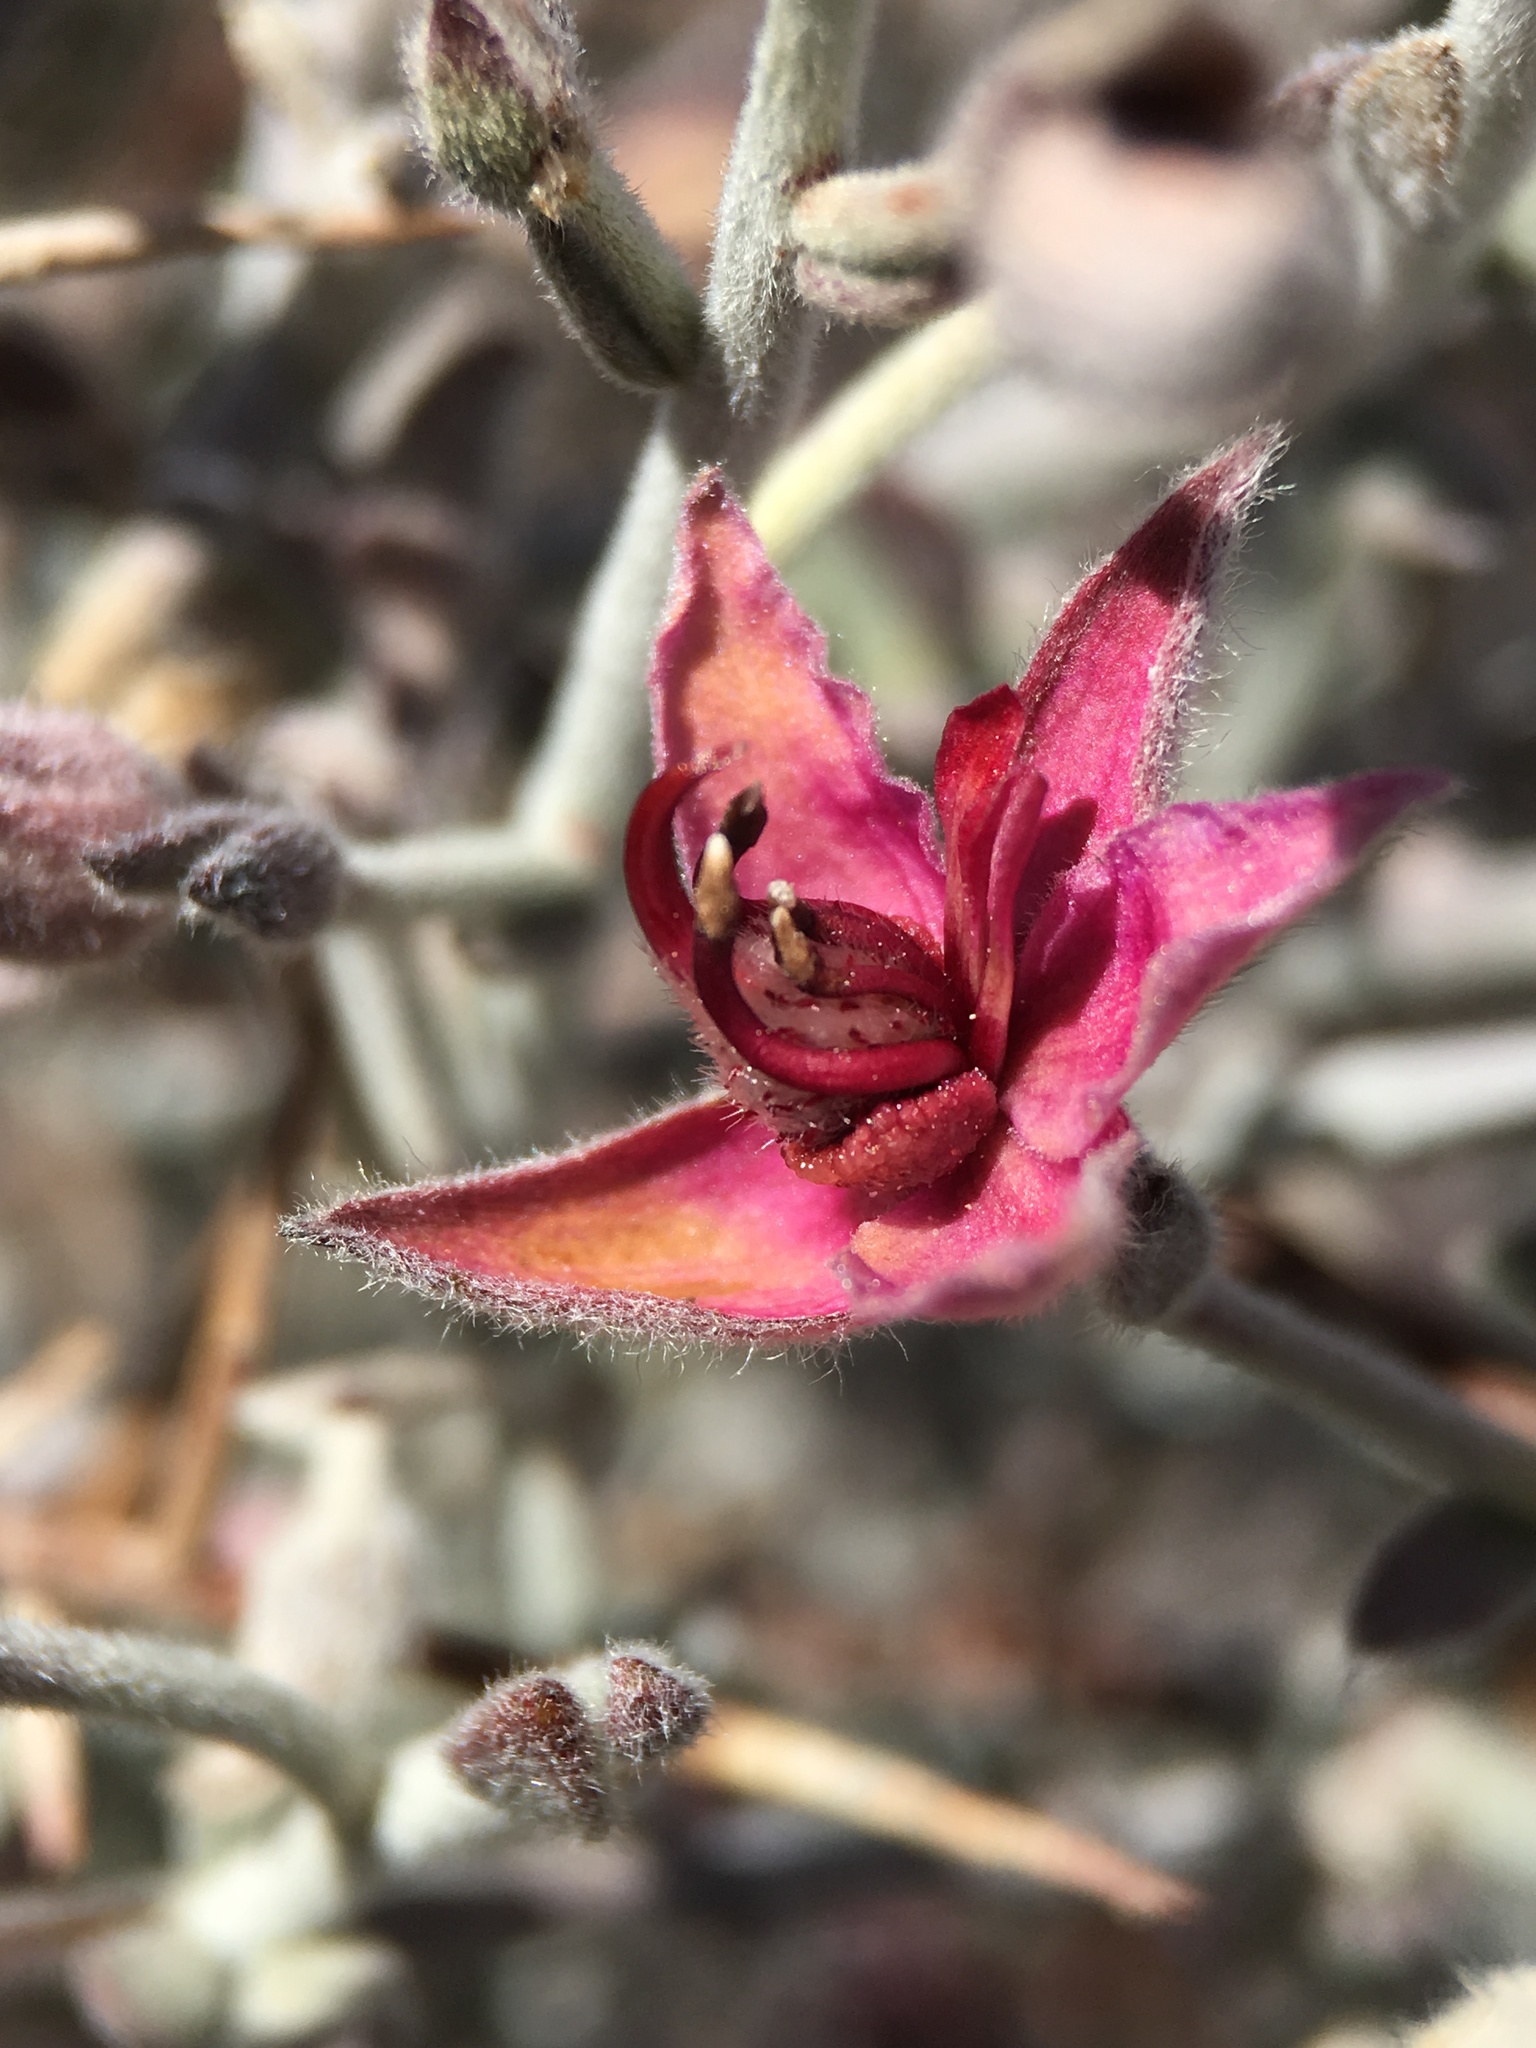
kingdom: Plantae
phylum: Tracheophyta
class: Magnoliopsida
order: Zygophyllales
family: Krameriaceae
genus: Krameria
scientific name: Krameria bicolor
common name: White ratany
